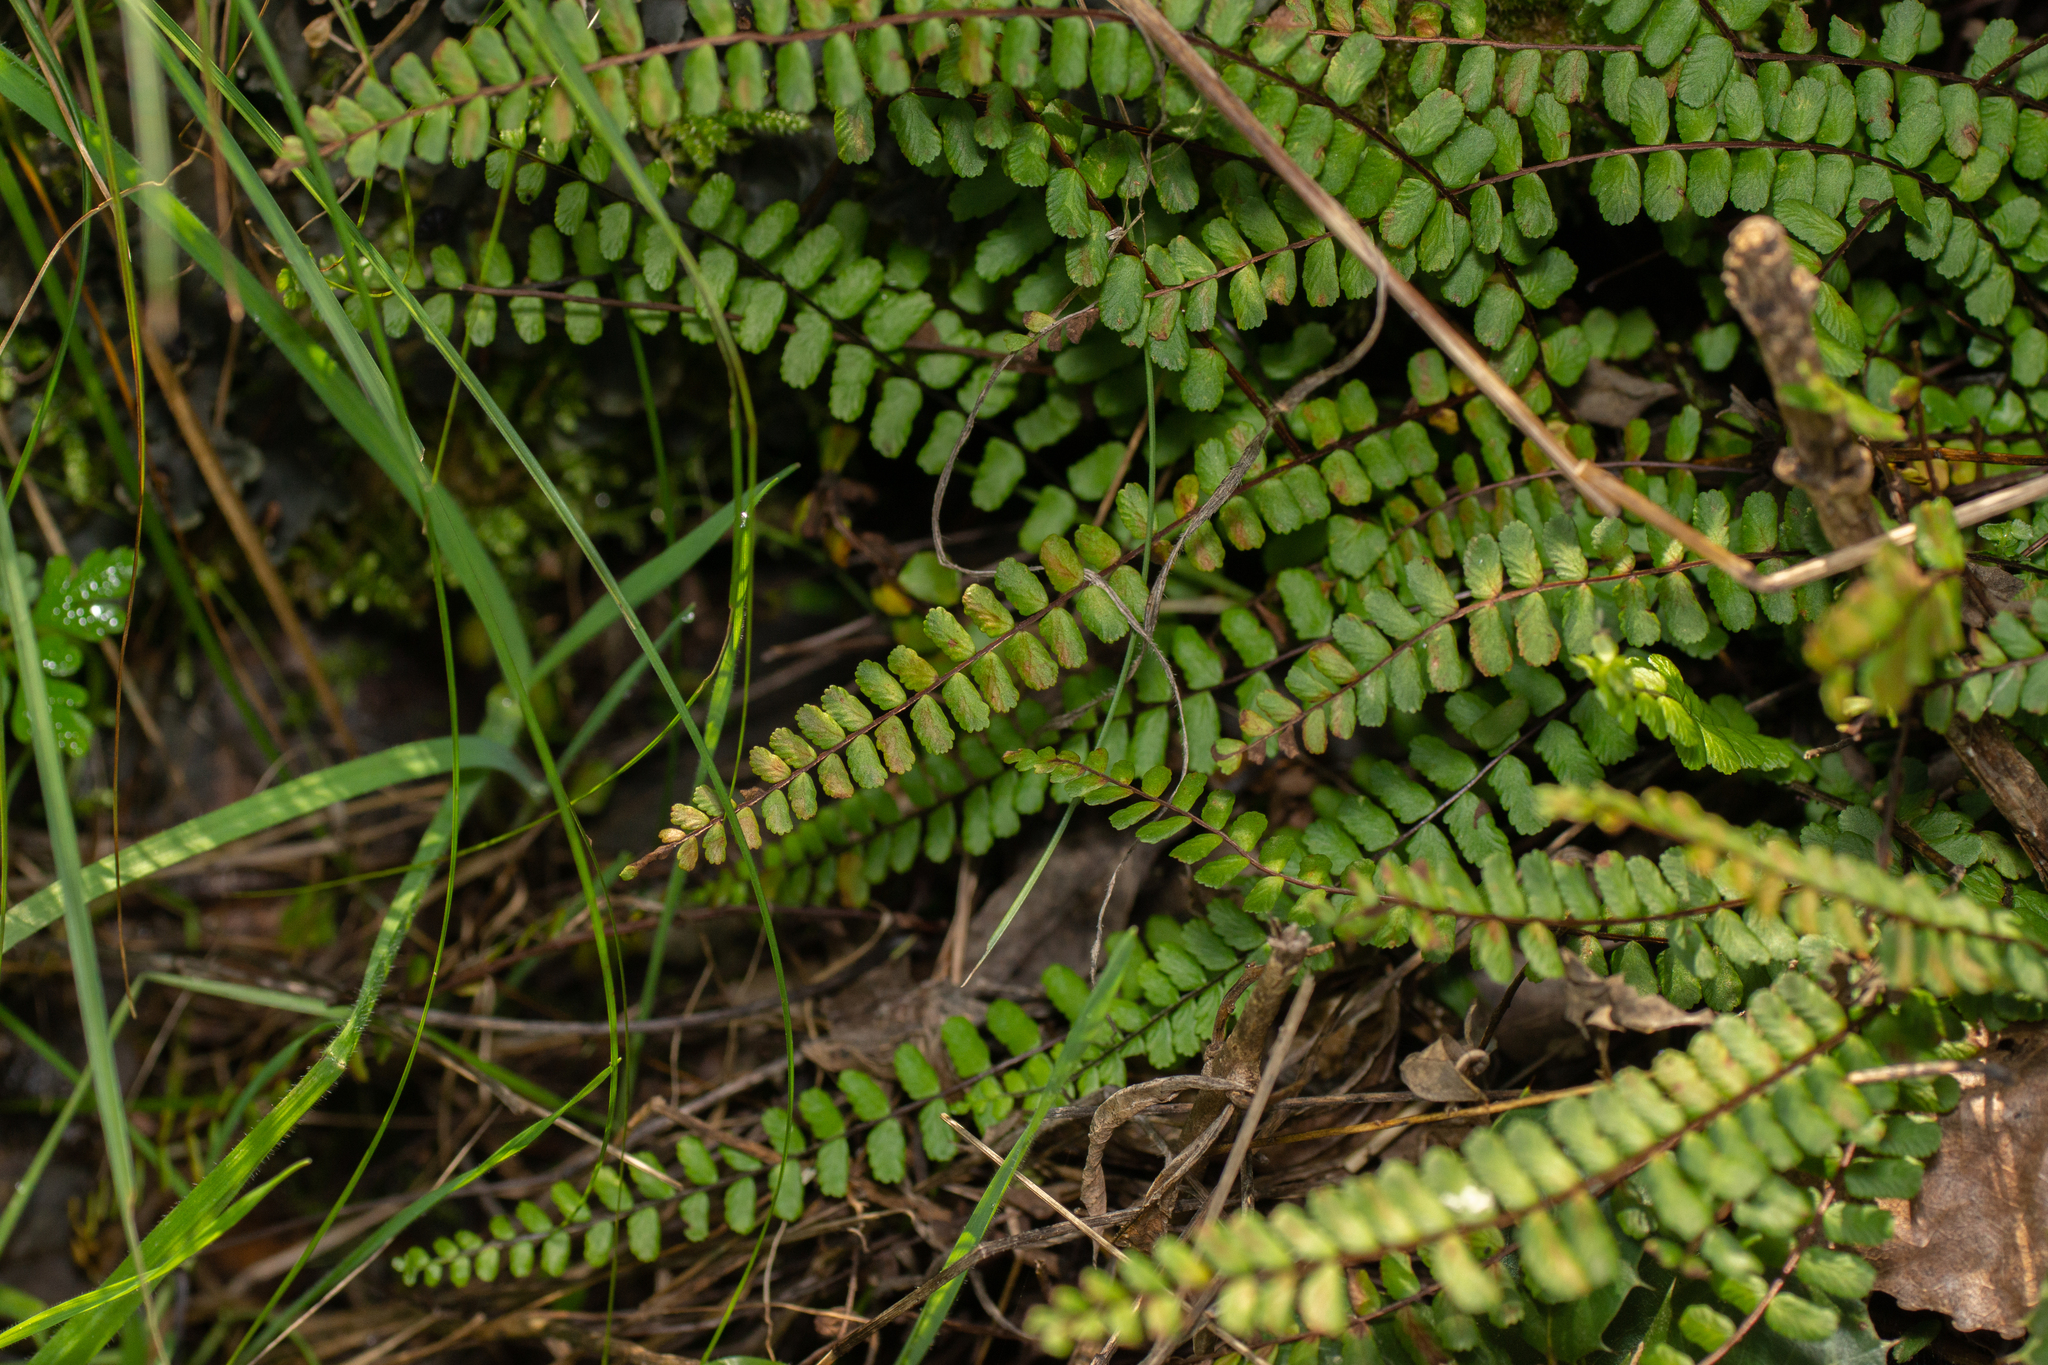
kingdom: Plantae
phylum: Tracheophyta
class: Polypodiopsida
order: Polypodiales
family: Aspleniaceae
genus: Asplenium
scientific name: Asplenium trichomanes
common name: Maidenhair spleenwort
